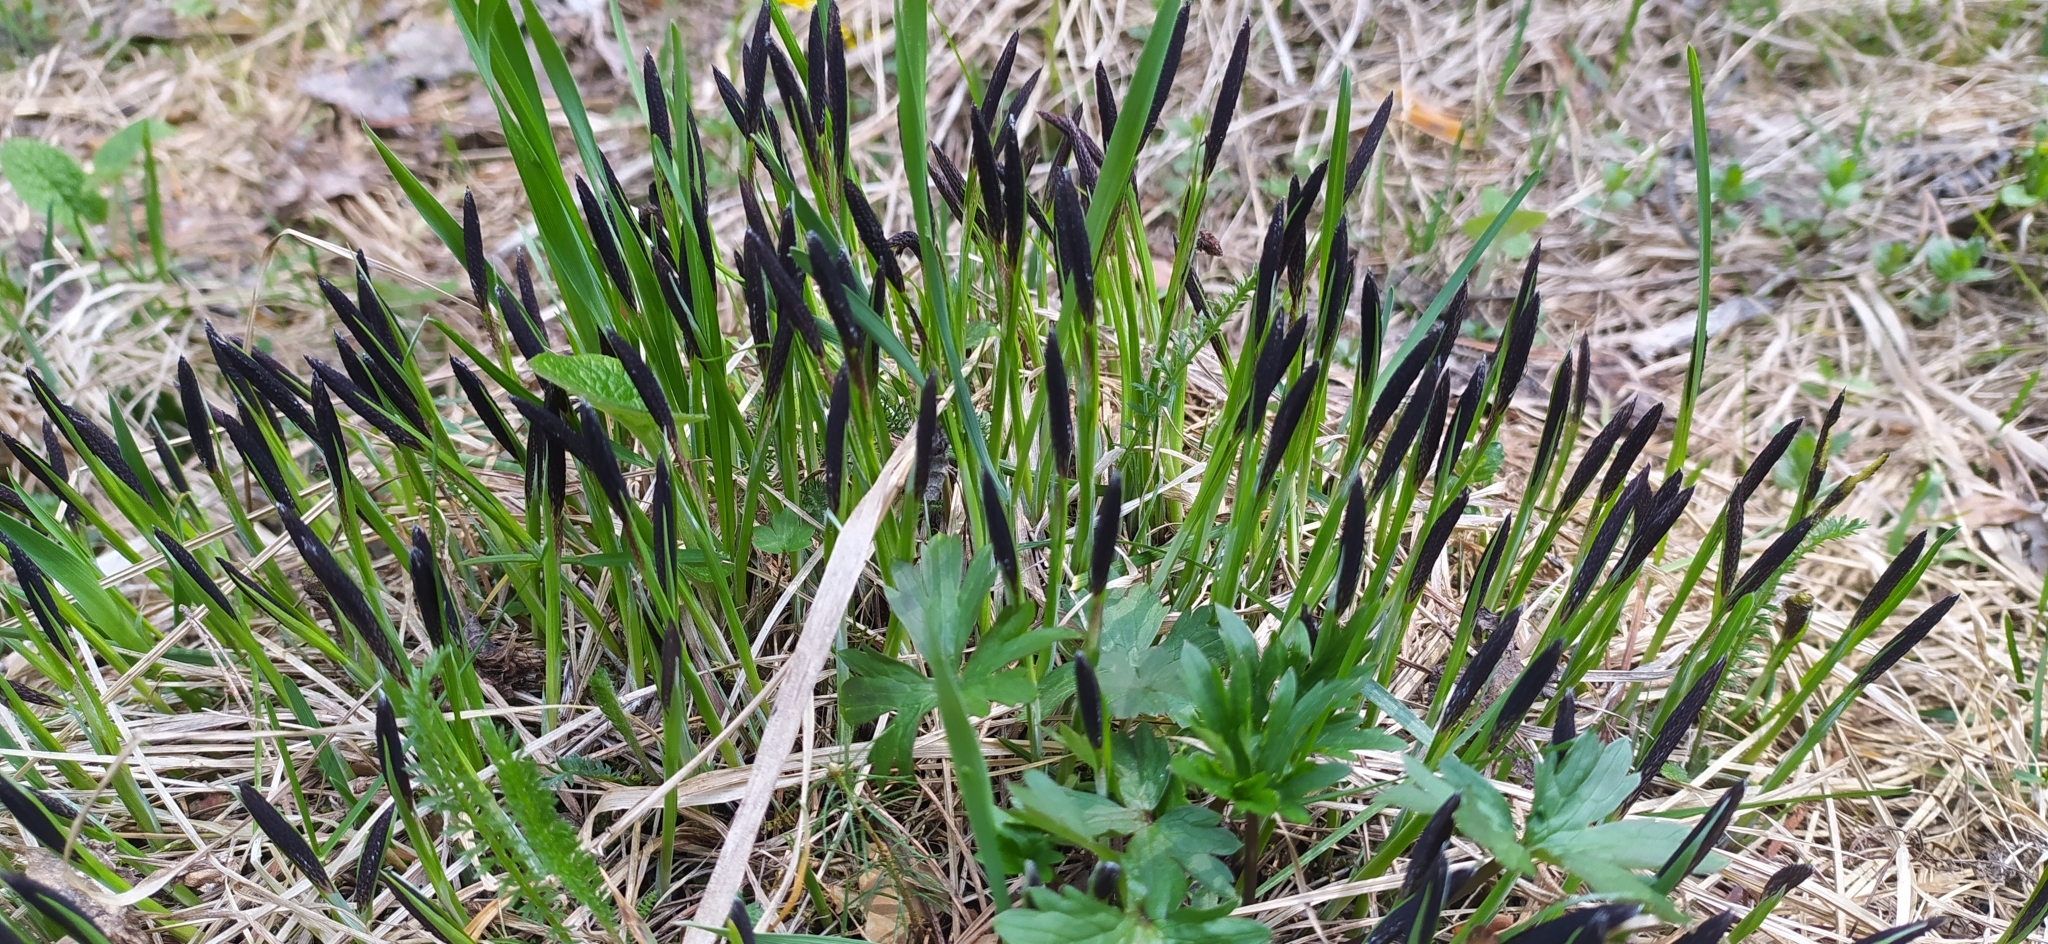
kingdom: Plantae
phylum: Tracheophyta
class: Liliopsida
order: Poales
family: Cyperaceae
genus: Carex
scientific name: Carex cespitosa
